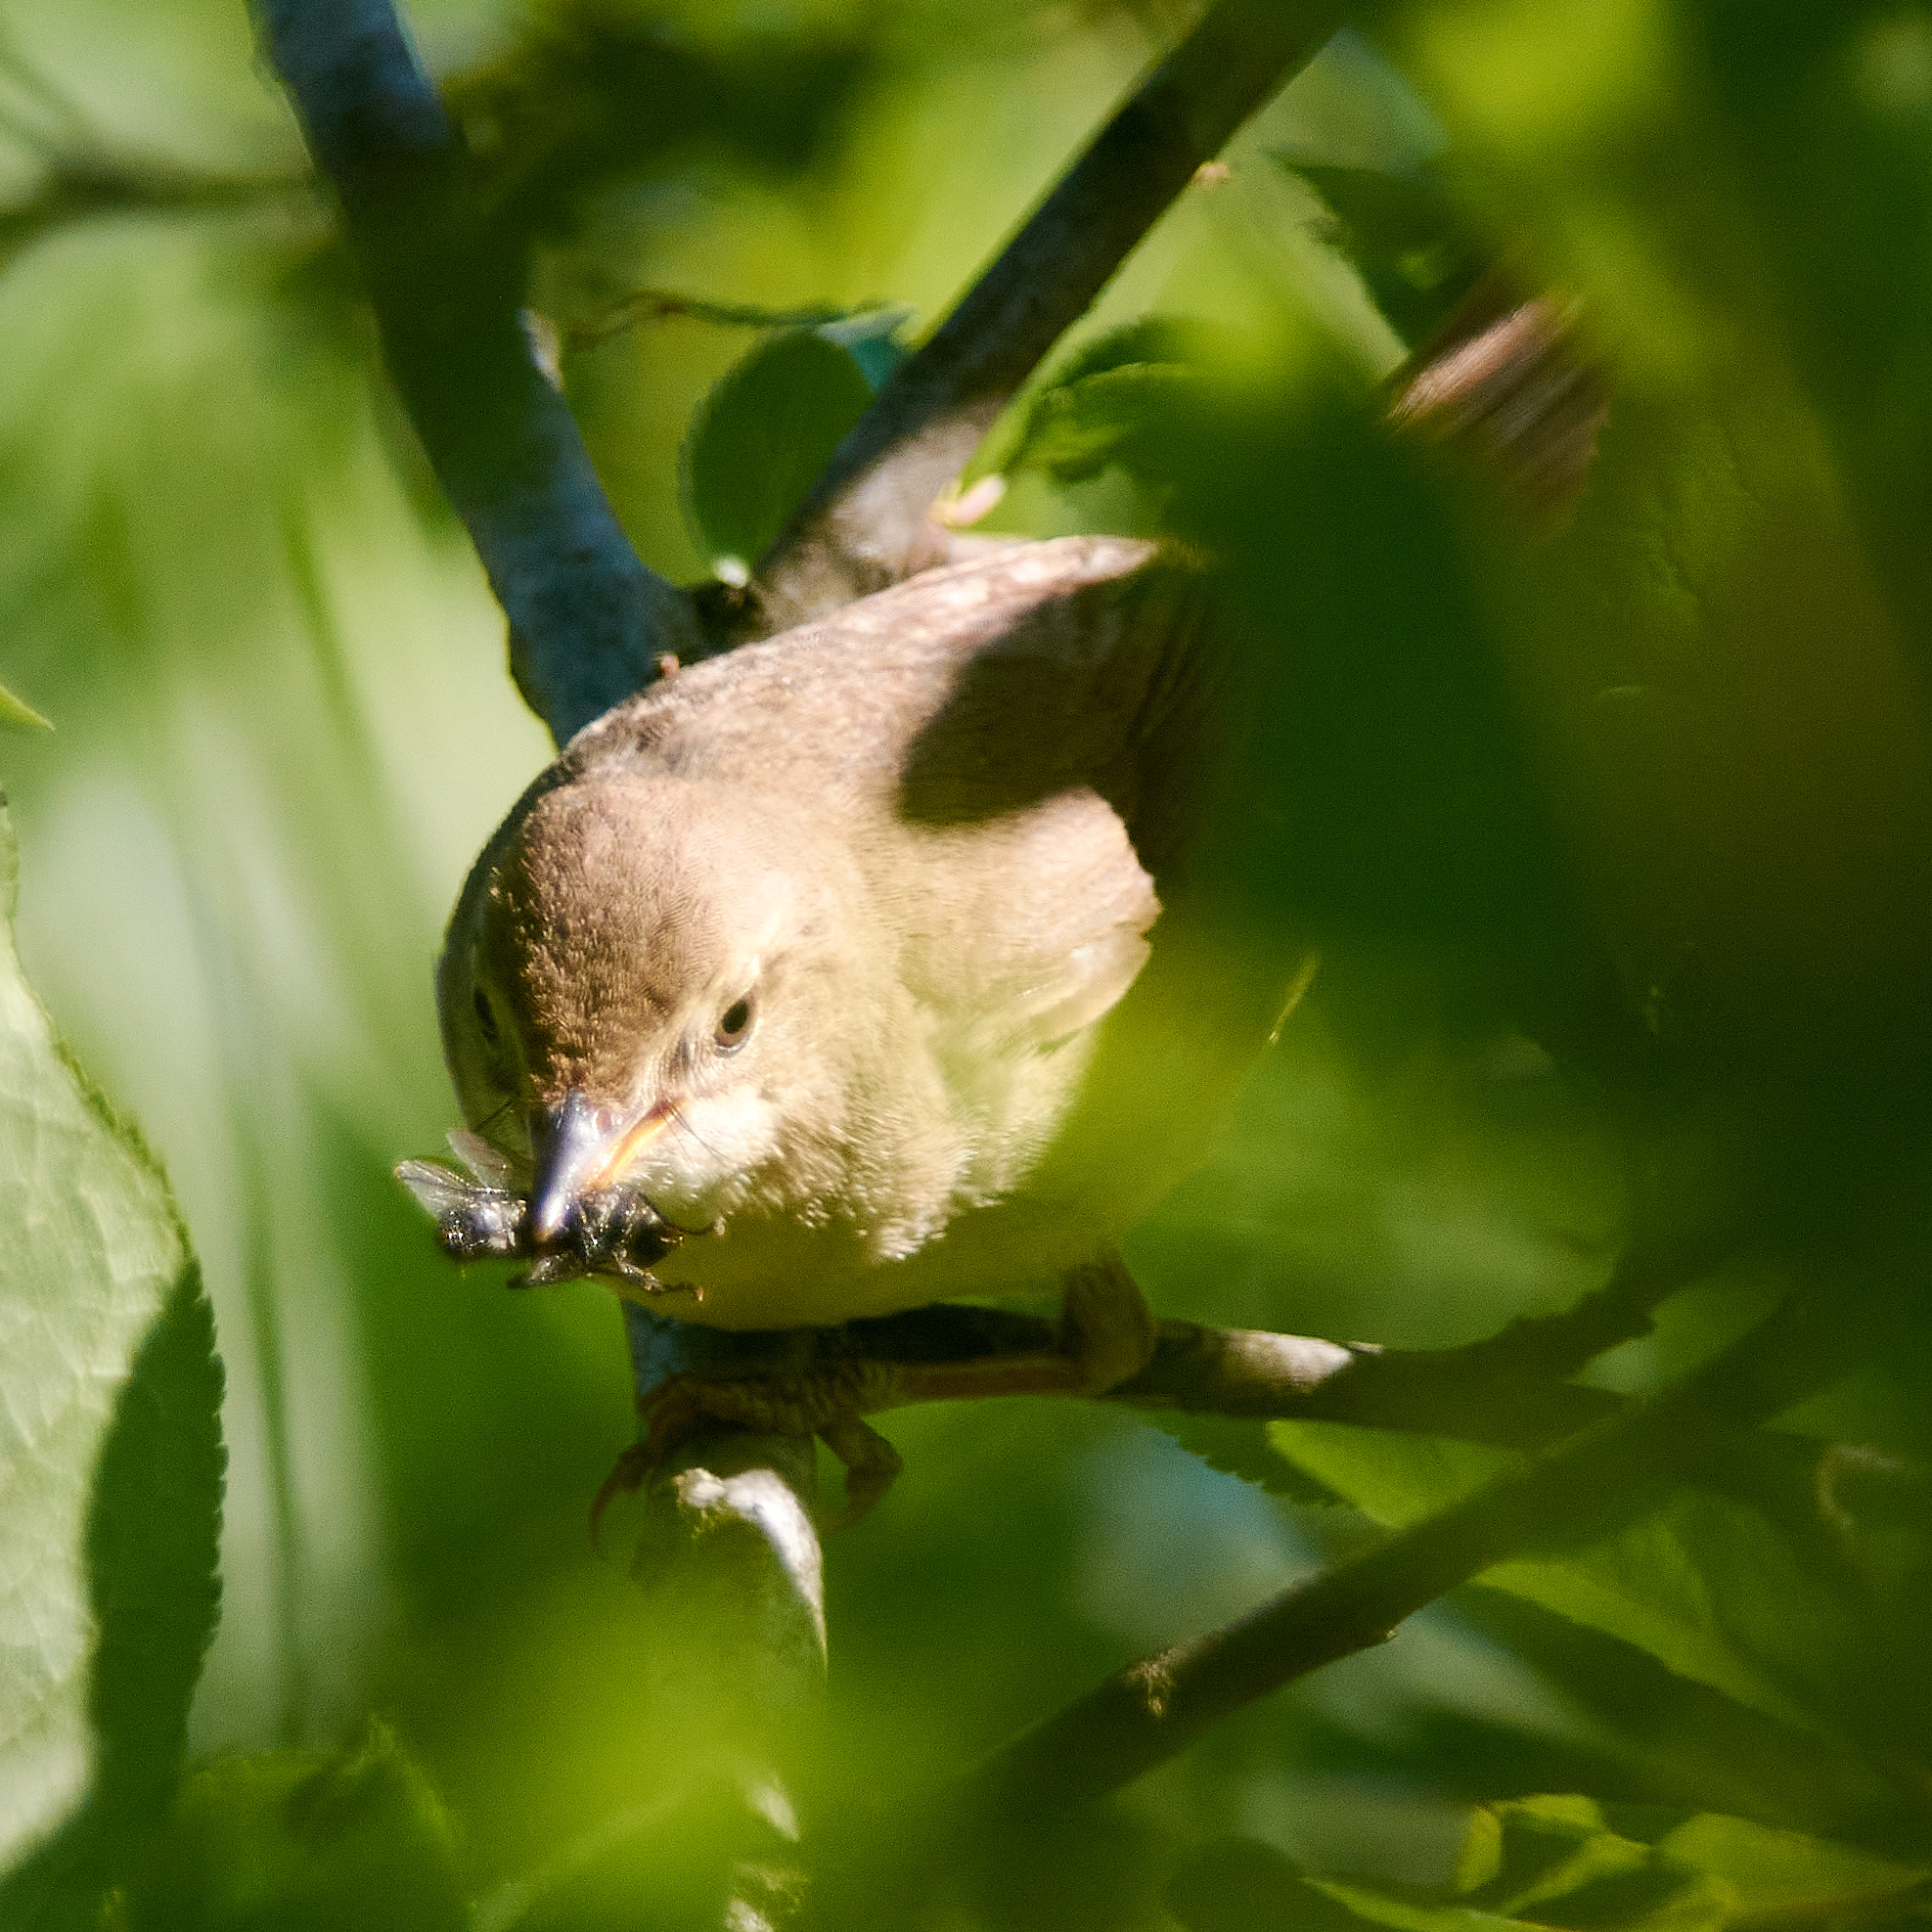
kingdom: Animalia
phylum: Chordata
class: Aves
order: Passeriformes
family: Acrocephalidae
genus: Acrocephalus
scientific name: Acrocephalus dumetorum
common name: Blyth's reed warbler
